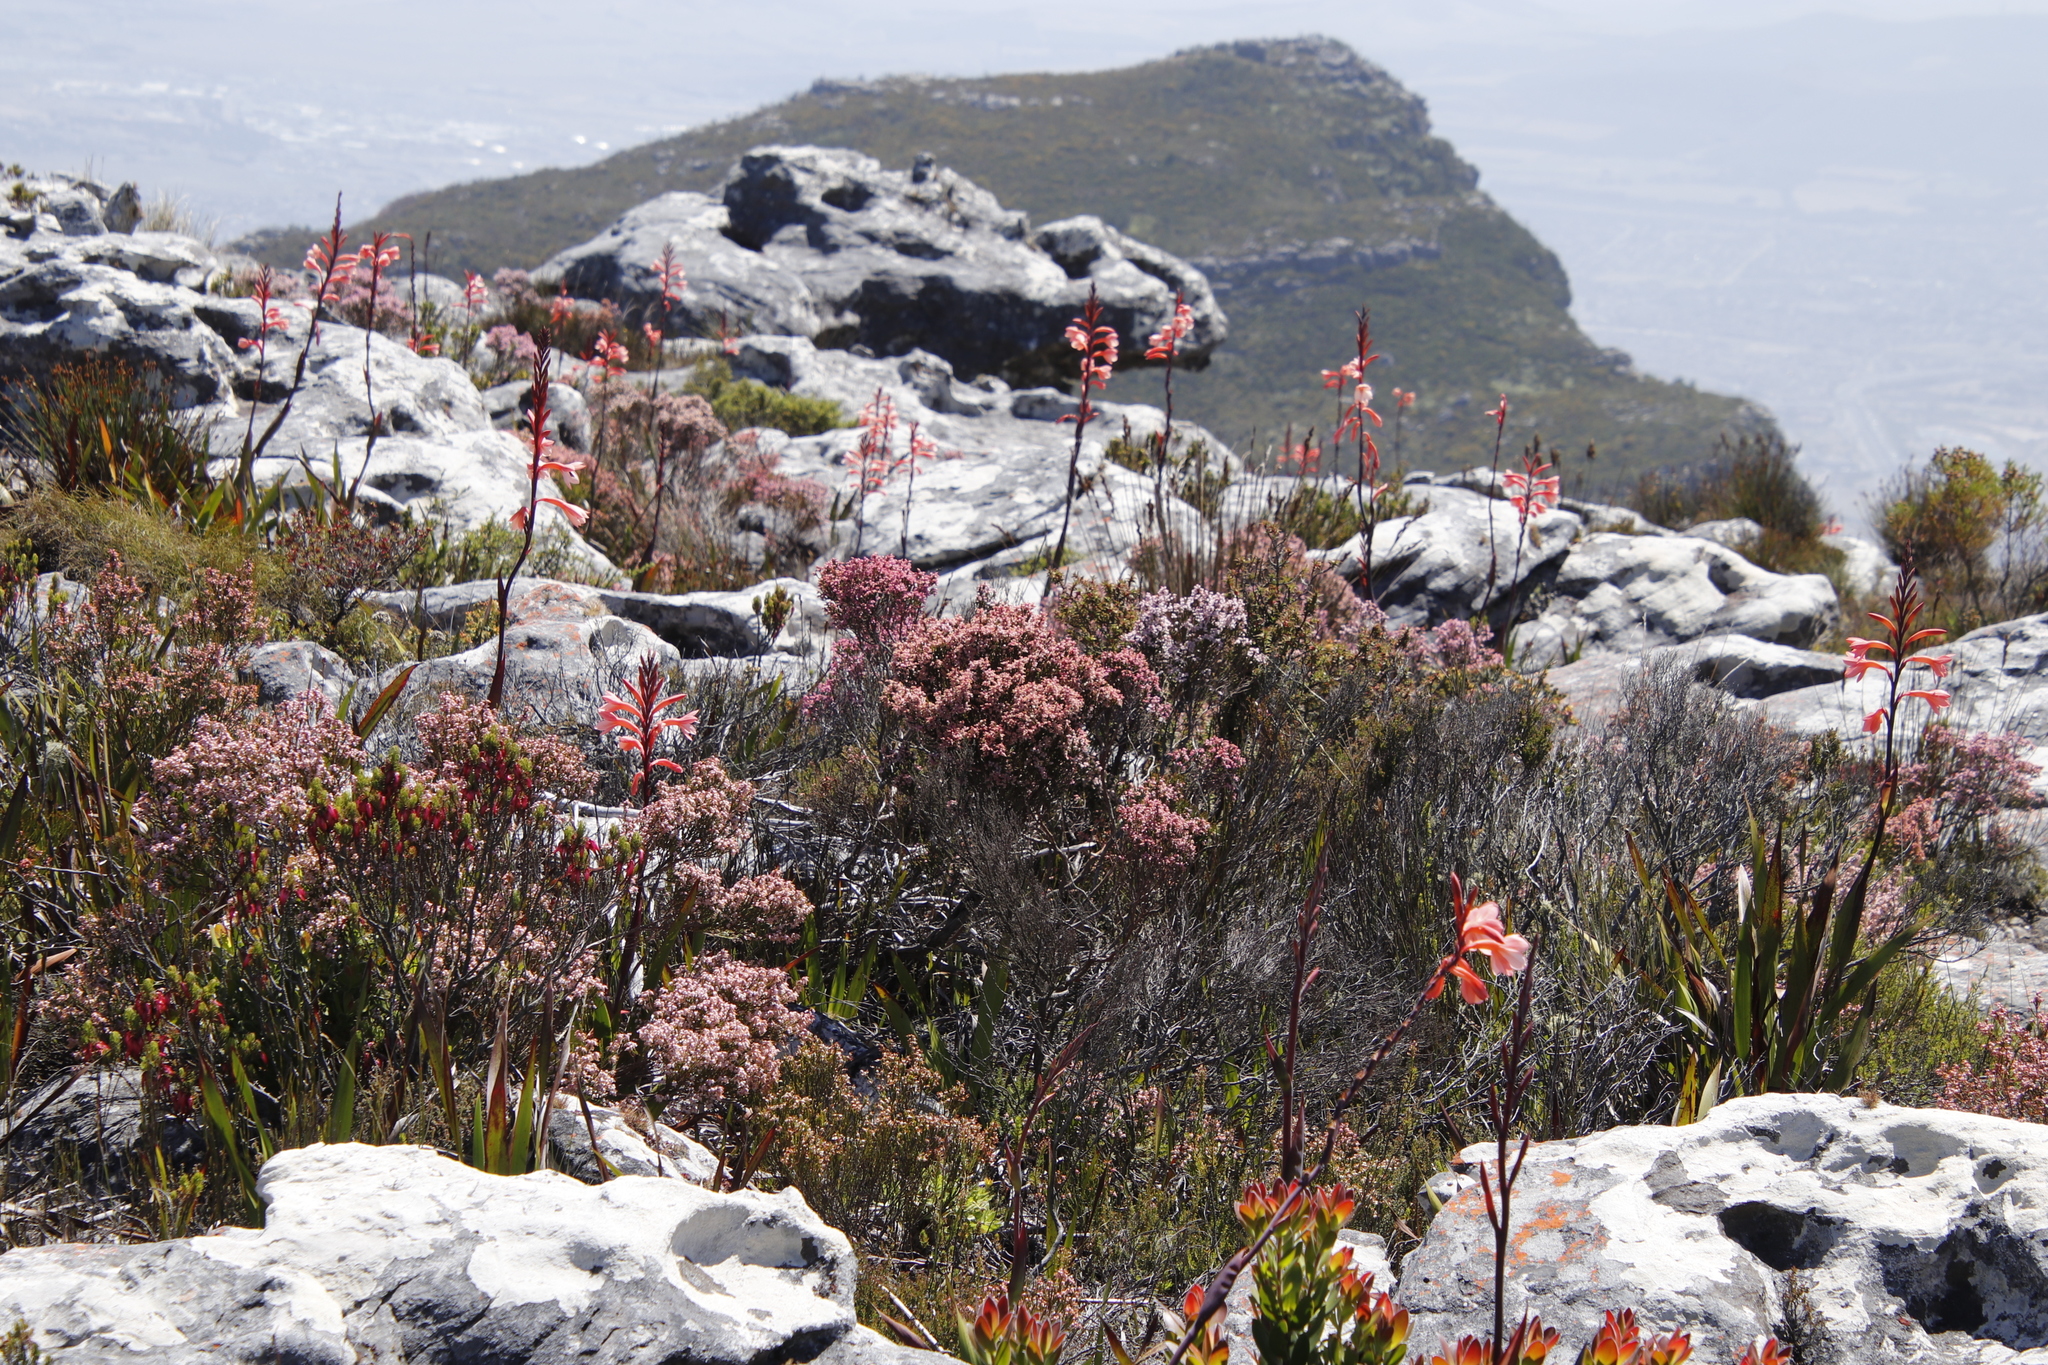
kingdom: Plantae
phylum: Tracheophyta
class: Liliopsida
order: Asparagales
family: Iridaceae
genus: Watsonia
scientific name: Watsonia tabularis
